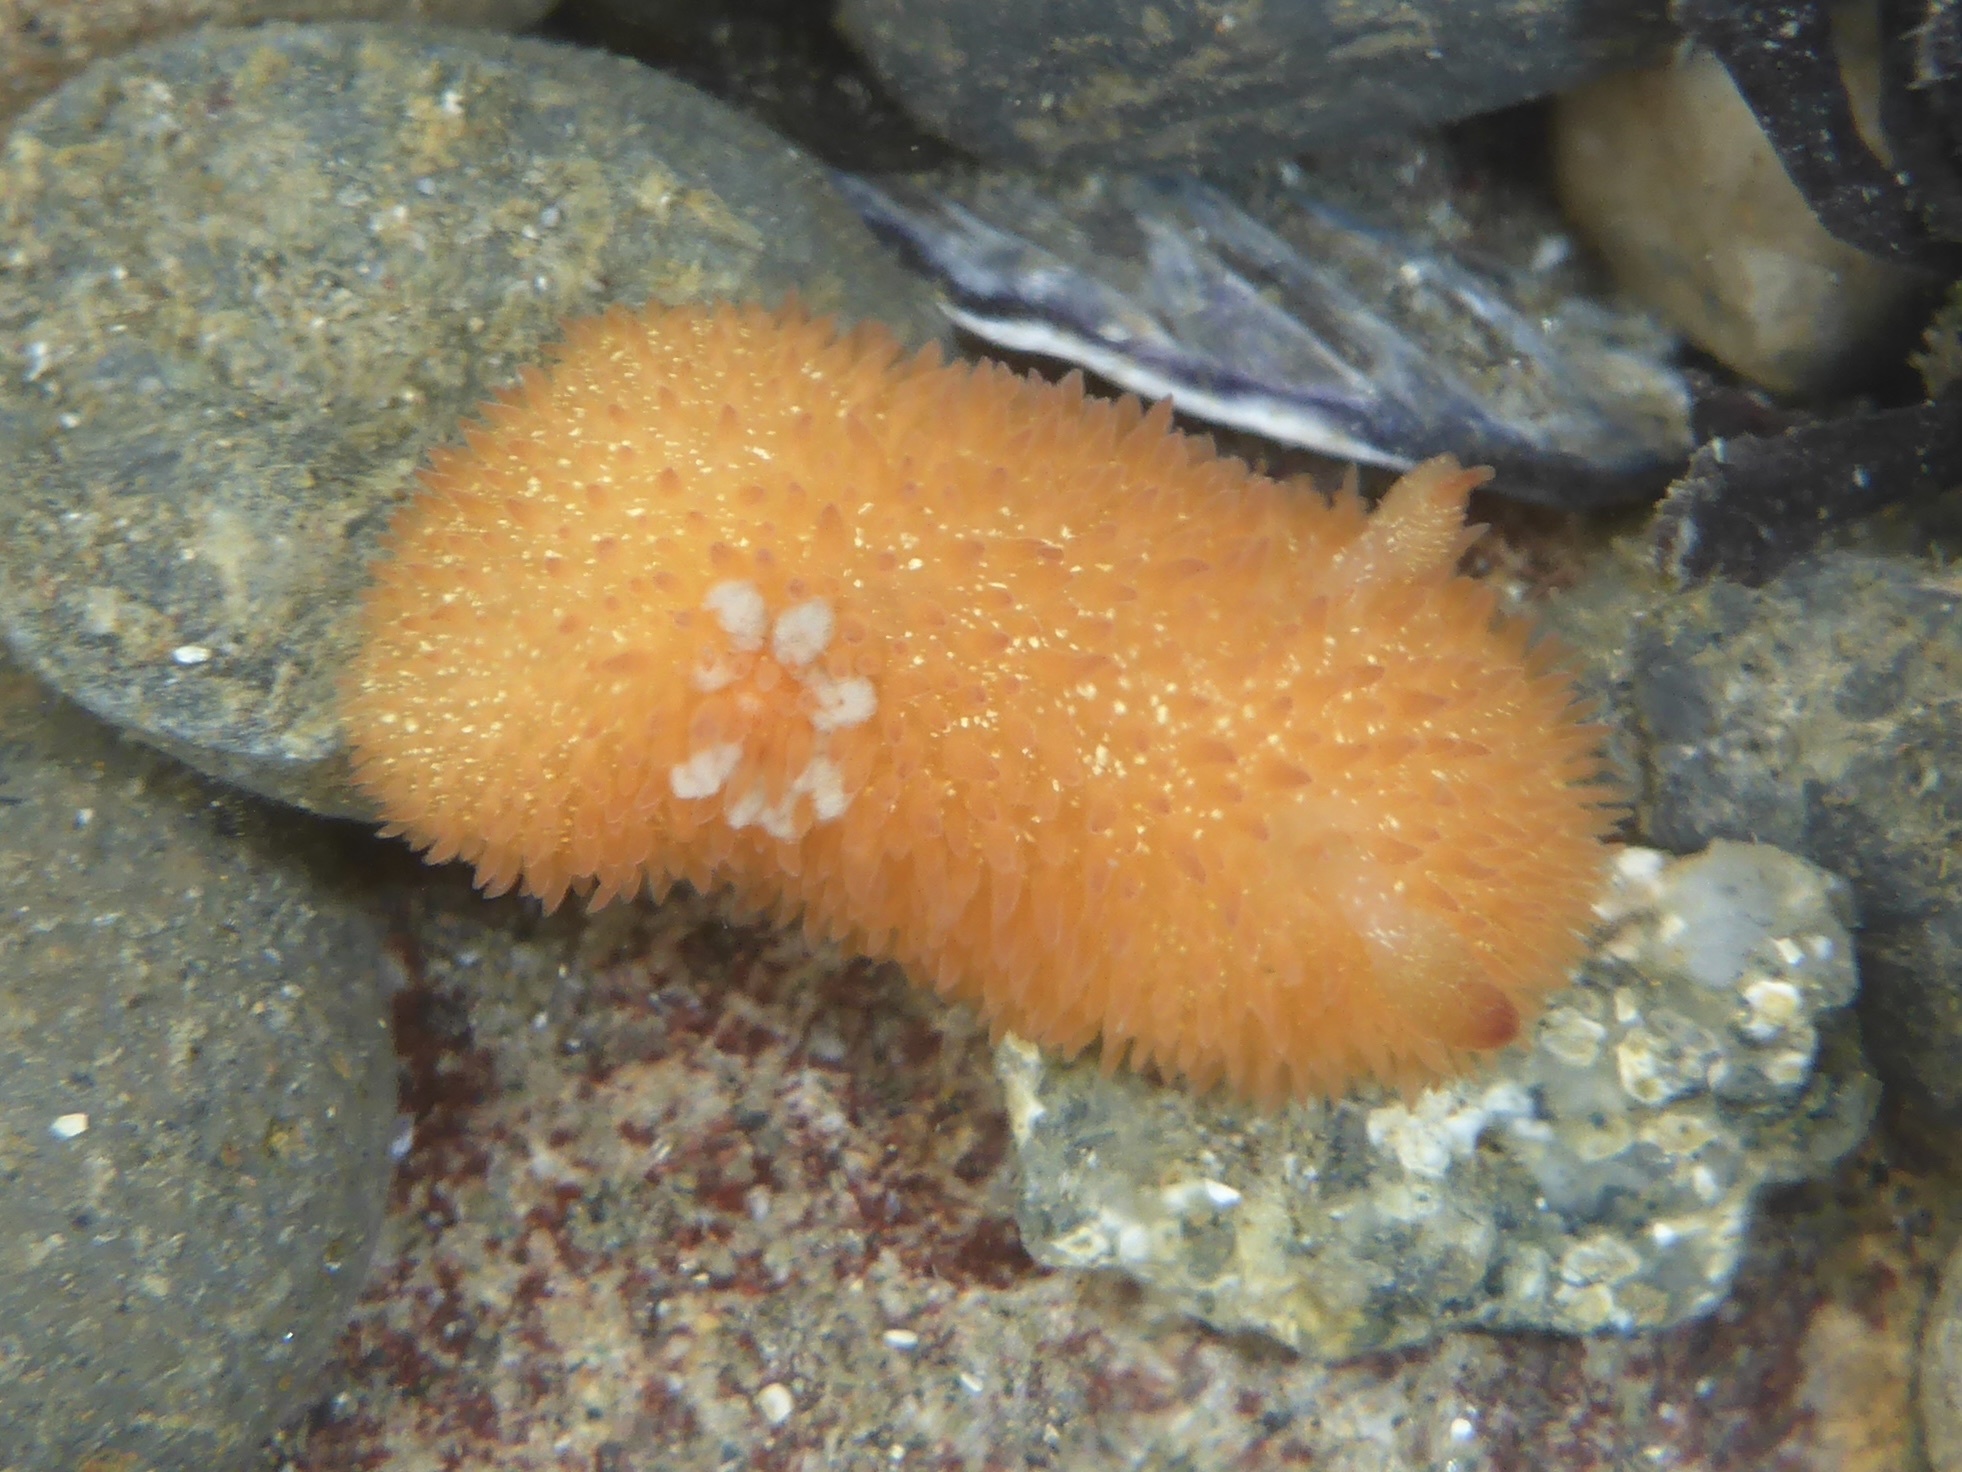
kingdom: Animalia
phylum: Mollusca
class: Gastropoda
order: Nudibranchia
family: Onchidorididae
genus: Acanthodoris
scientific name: Acanthodoris lutea
